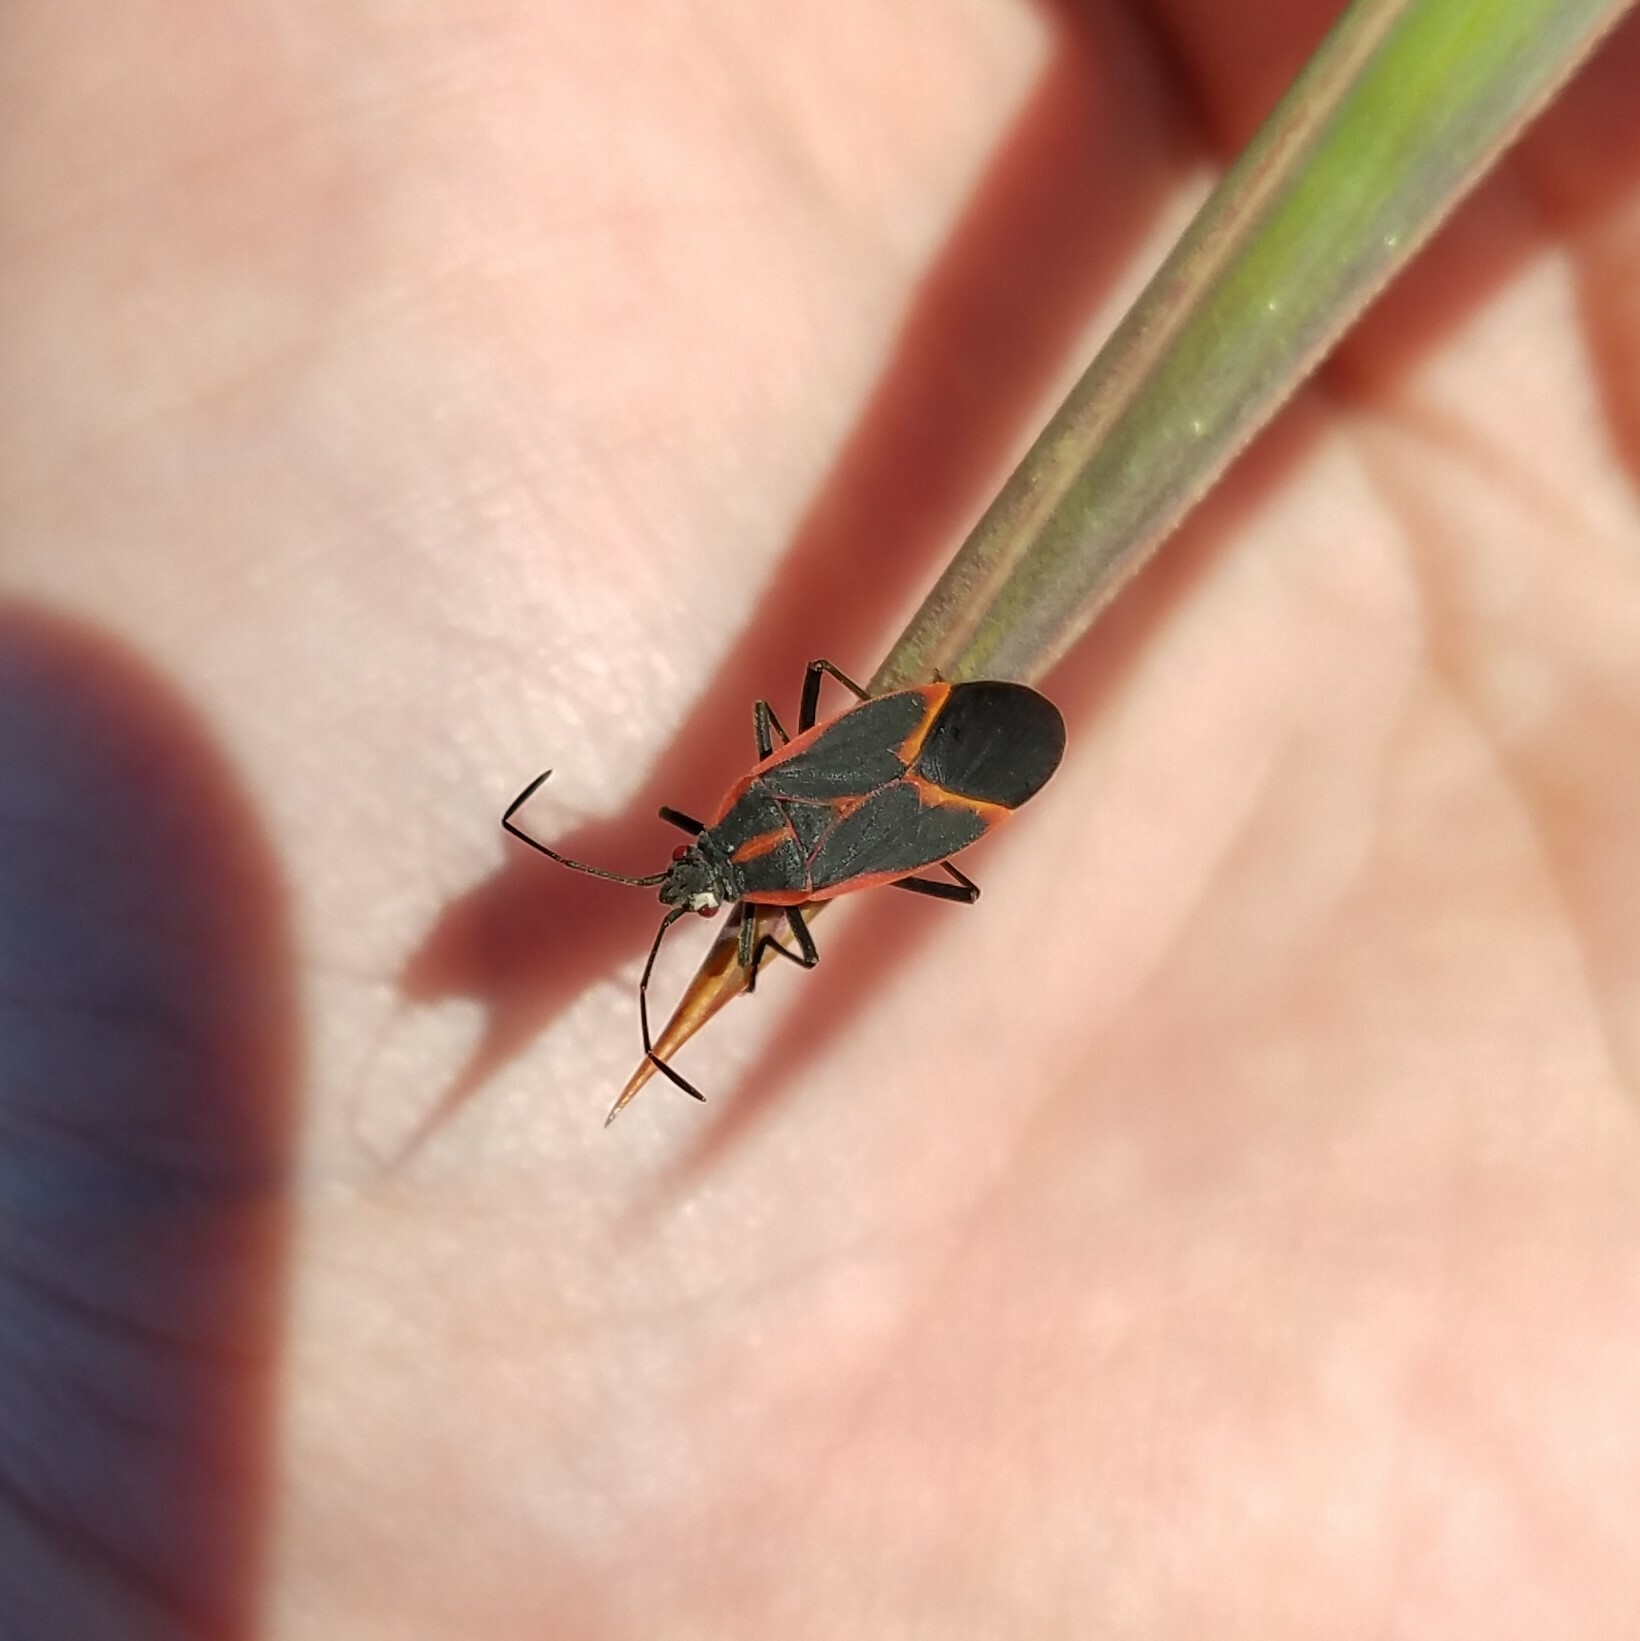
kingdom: Animalia
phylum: Arthropoda
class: Insecta
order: Hemiptera
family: Rhopalidae
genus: Boisea
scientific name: Boisea trivittata
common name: Boxelder bug
